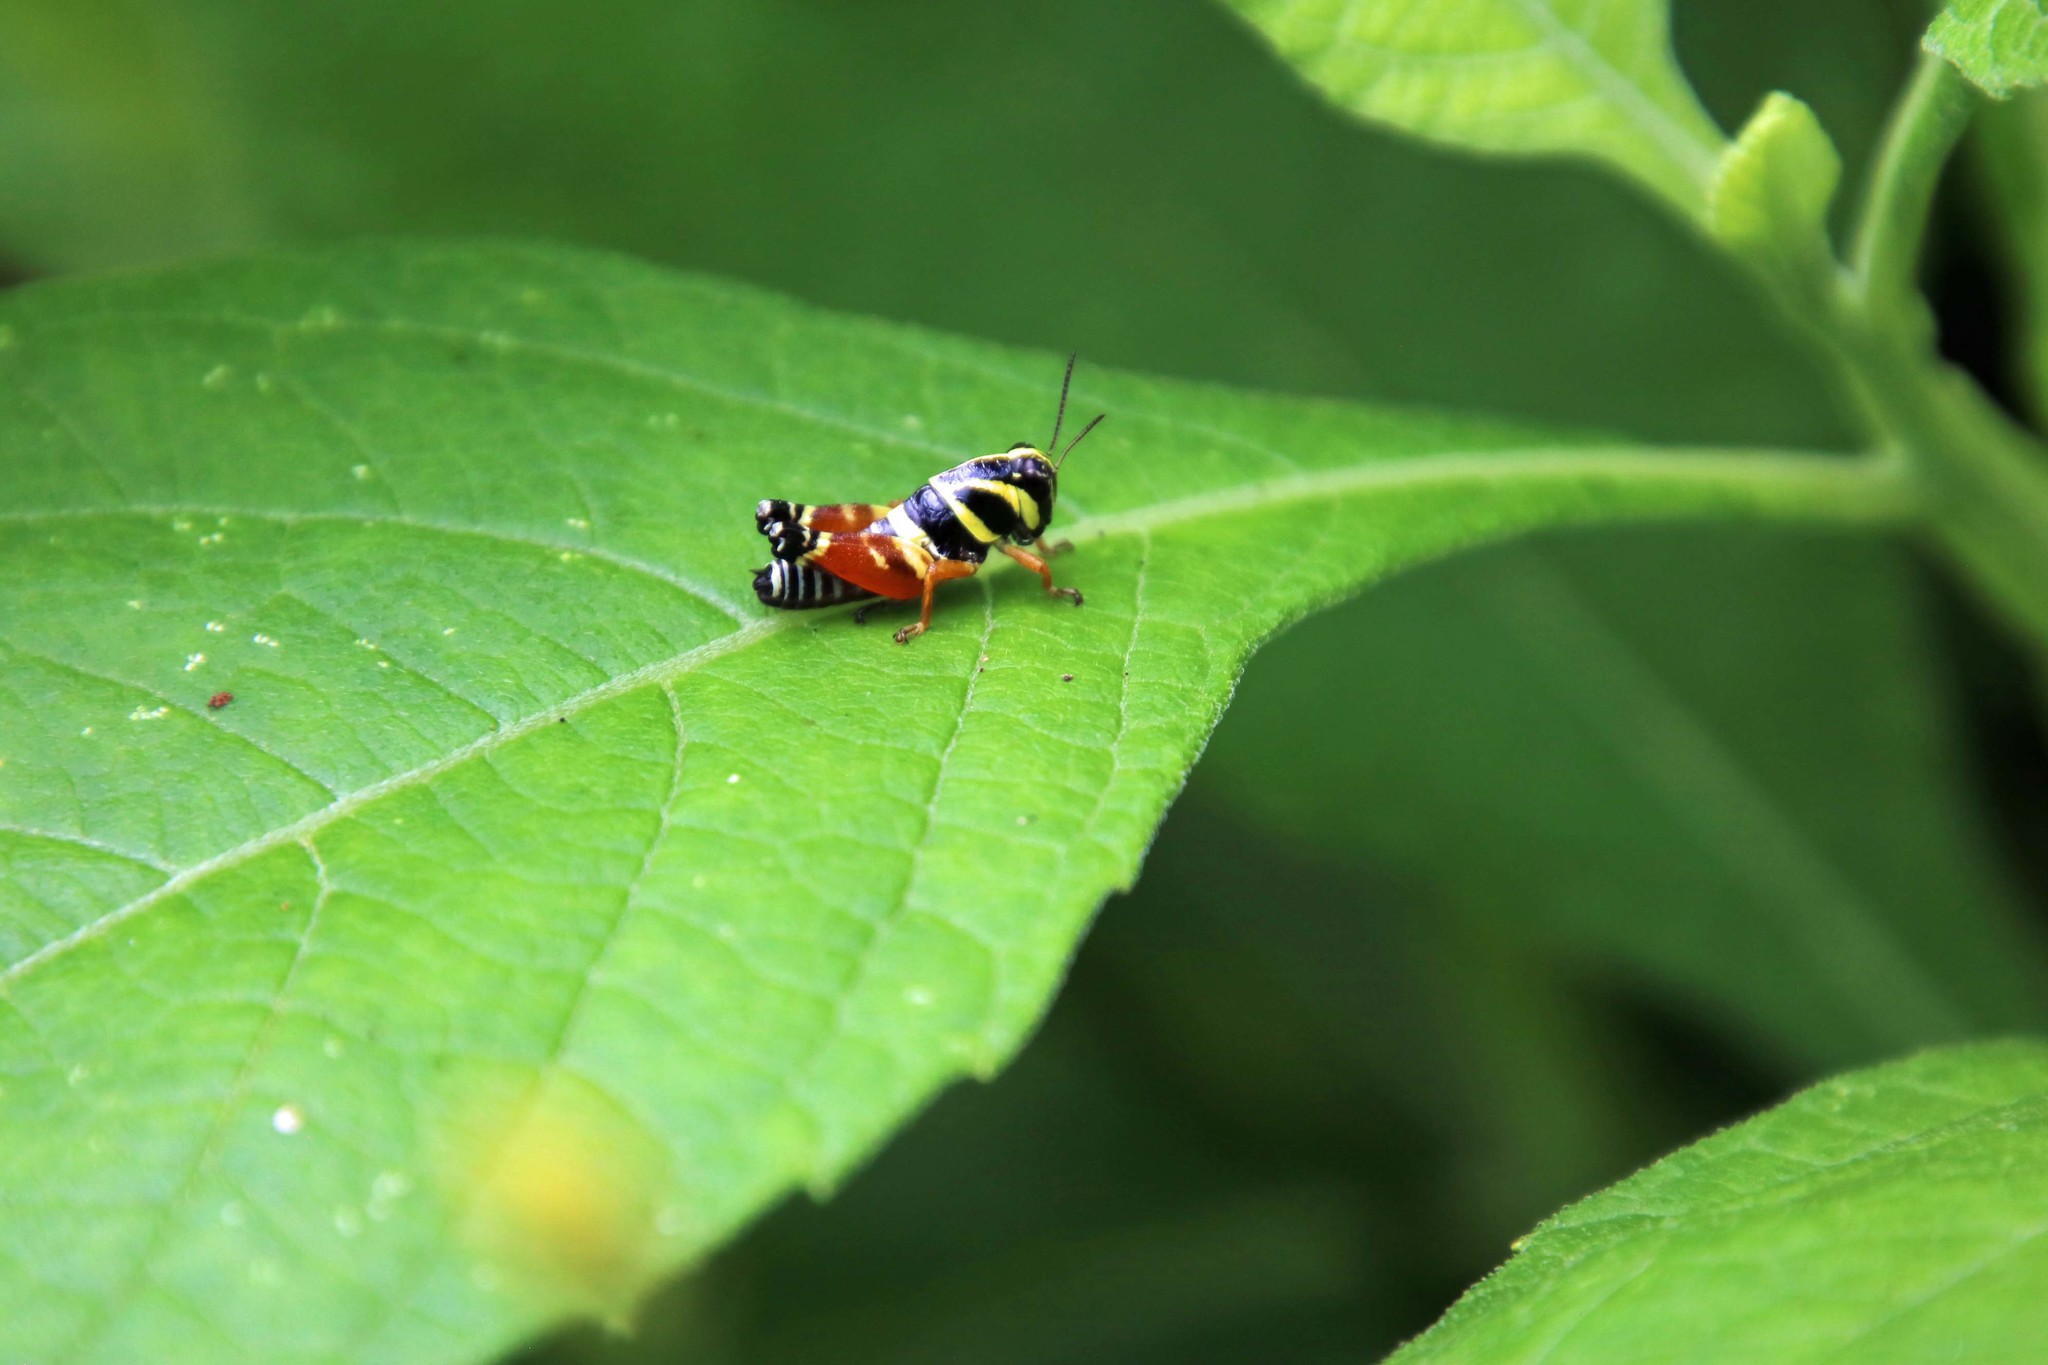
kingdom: Animalia
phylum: Arthropoda
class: Insecta
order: Orthoptera
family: Acrididae
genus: Aidemona
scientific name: Aidemona azteca
